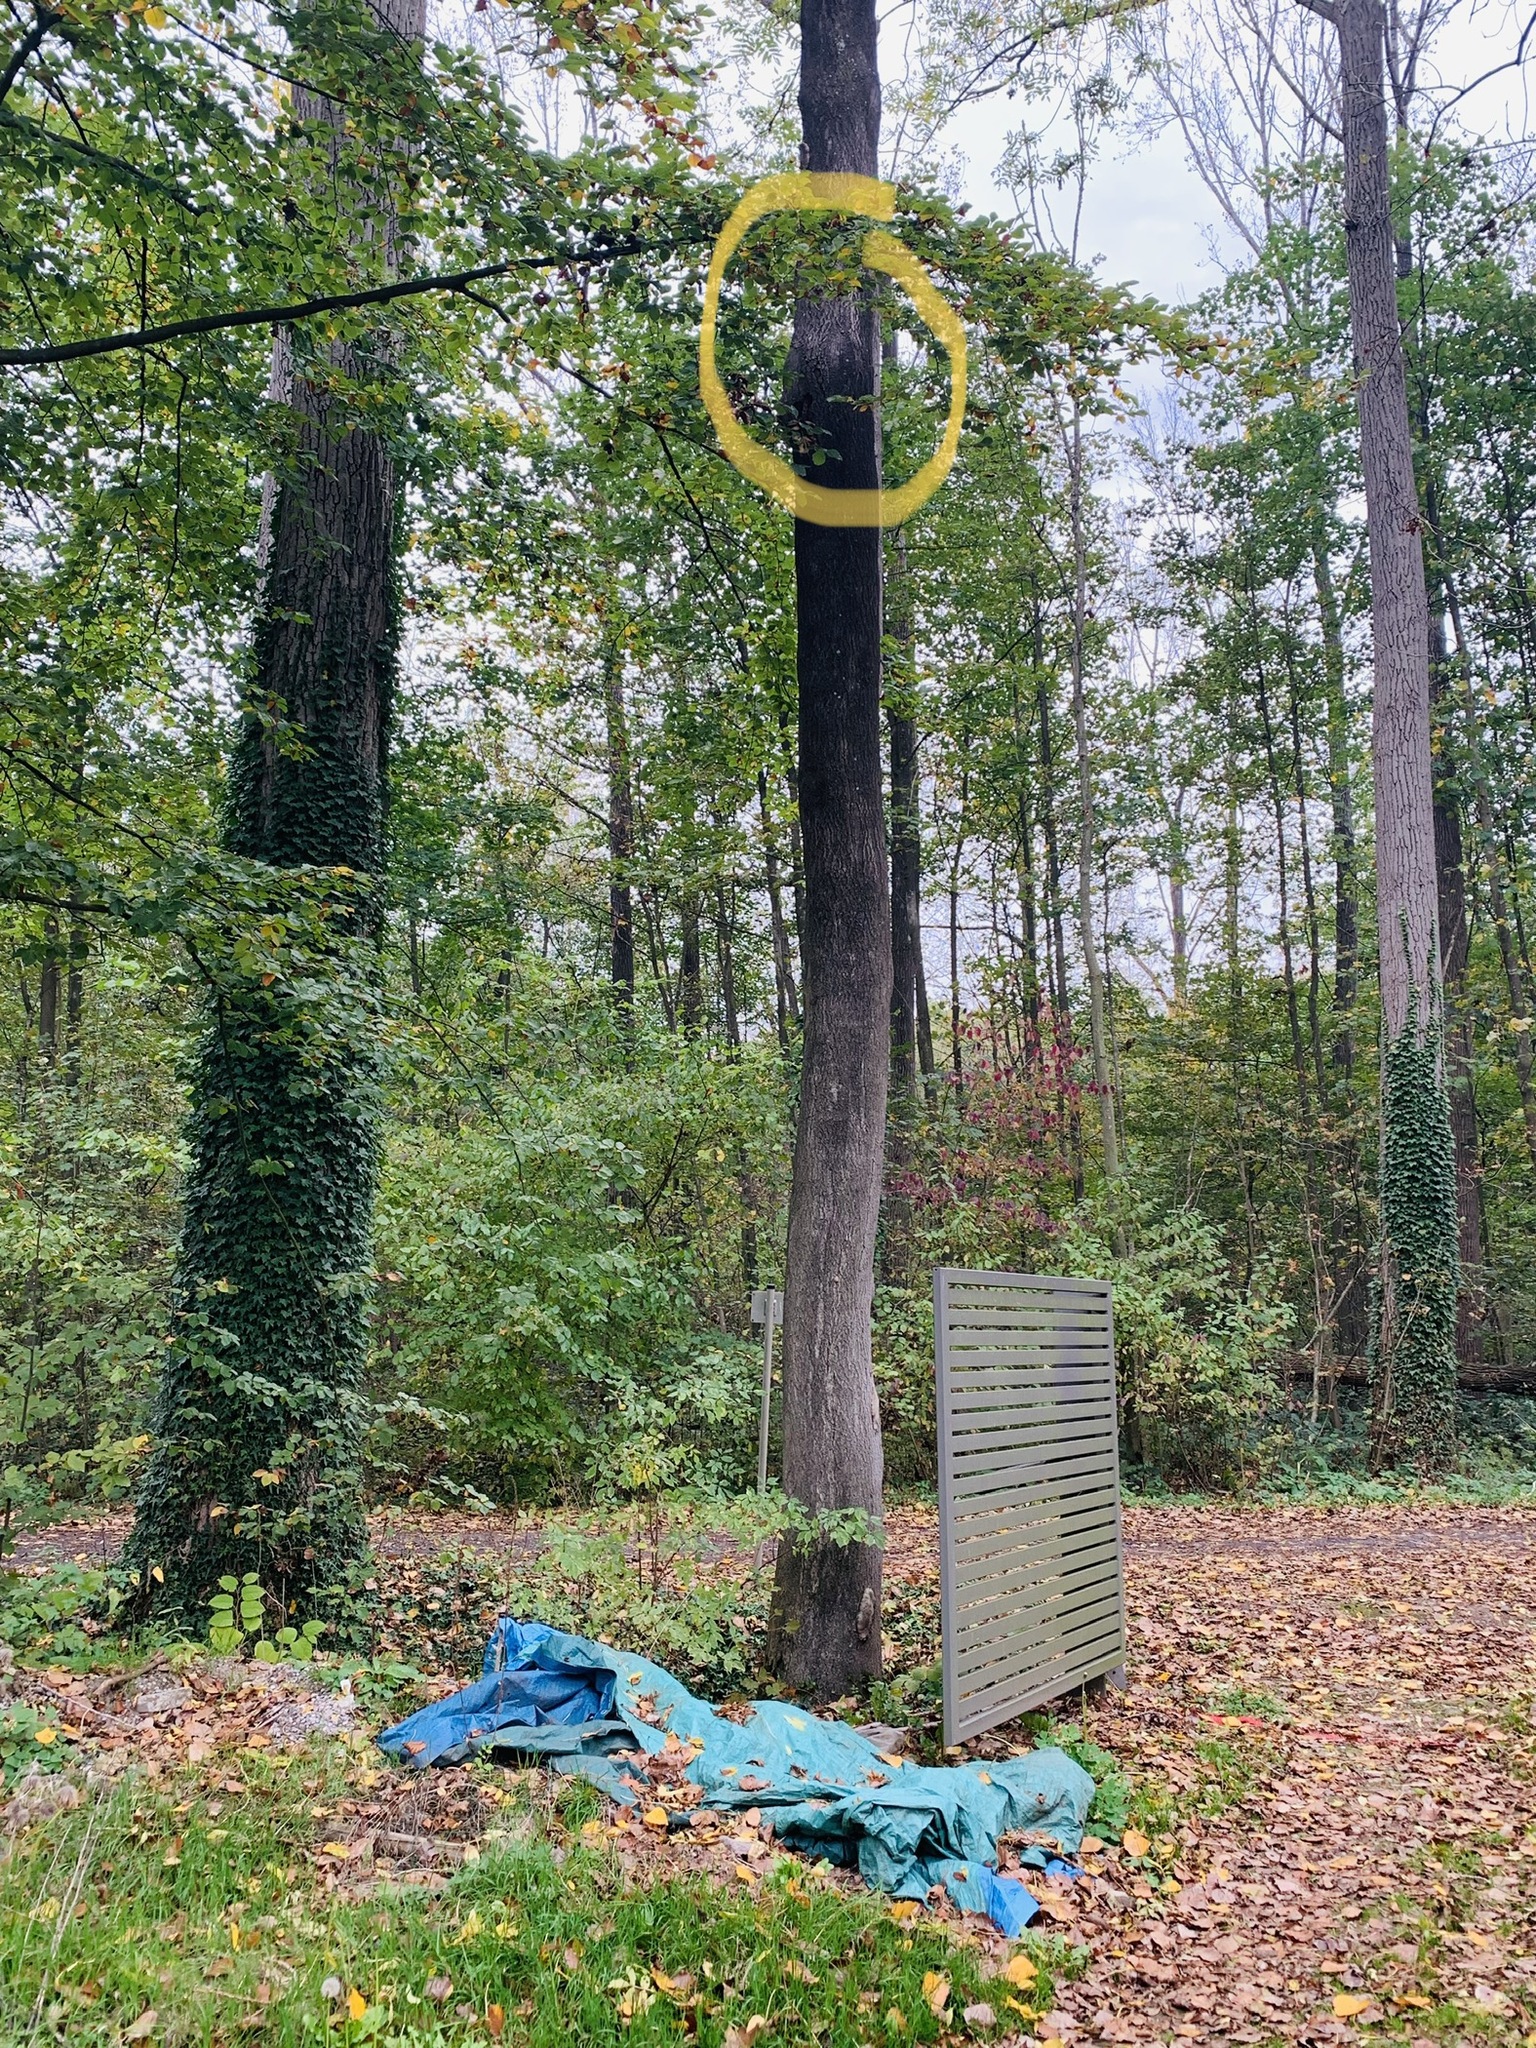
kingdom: Animalia
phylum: Arthropoda
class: Insecta
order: Hymenoptera
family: Vespidae
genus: Vespa
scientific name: Vespa crabro
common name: Hornet
